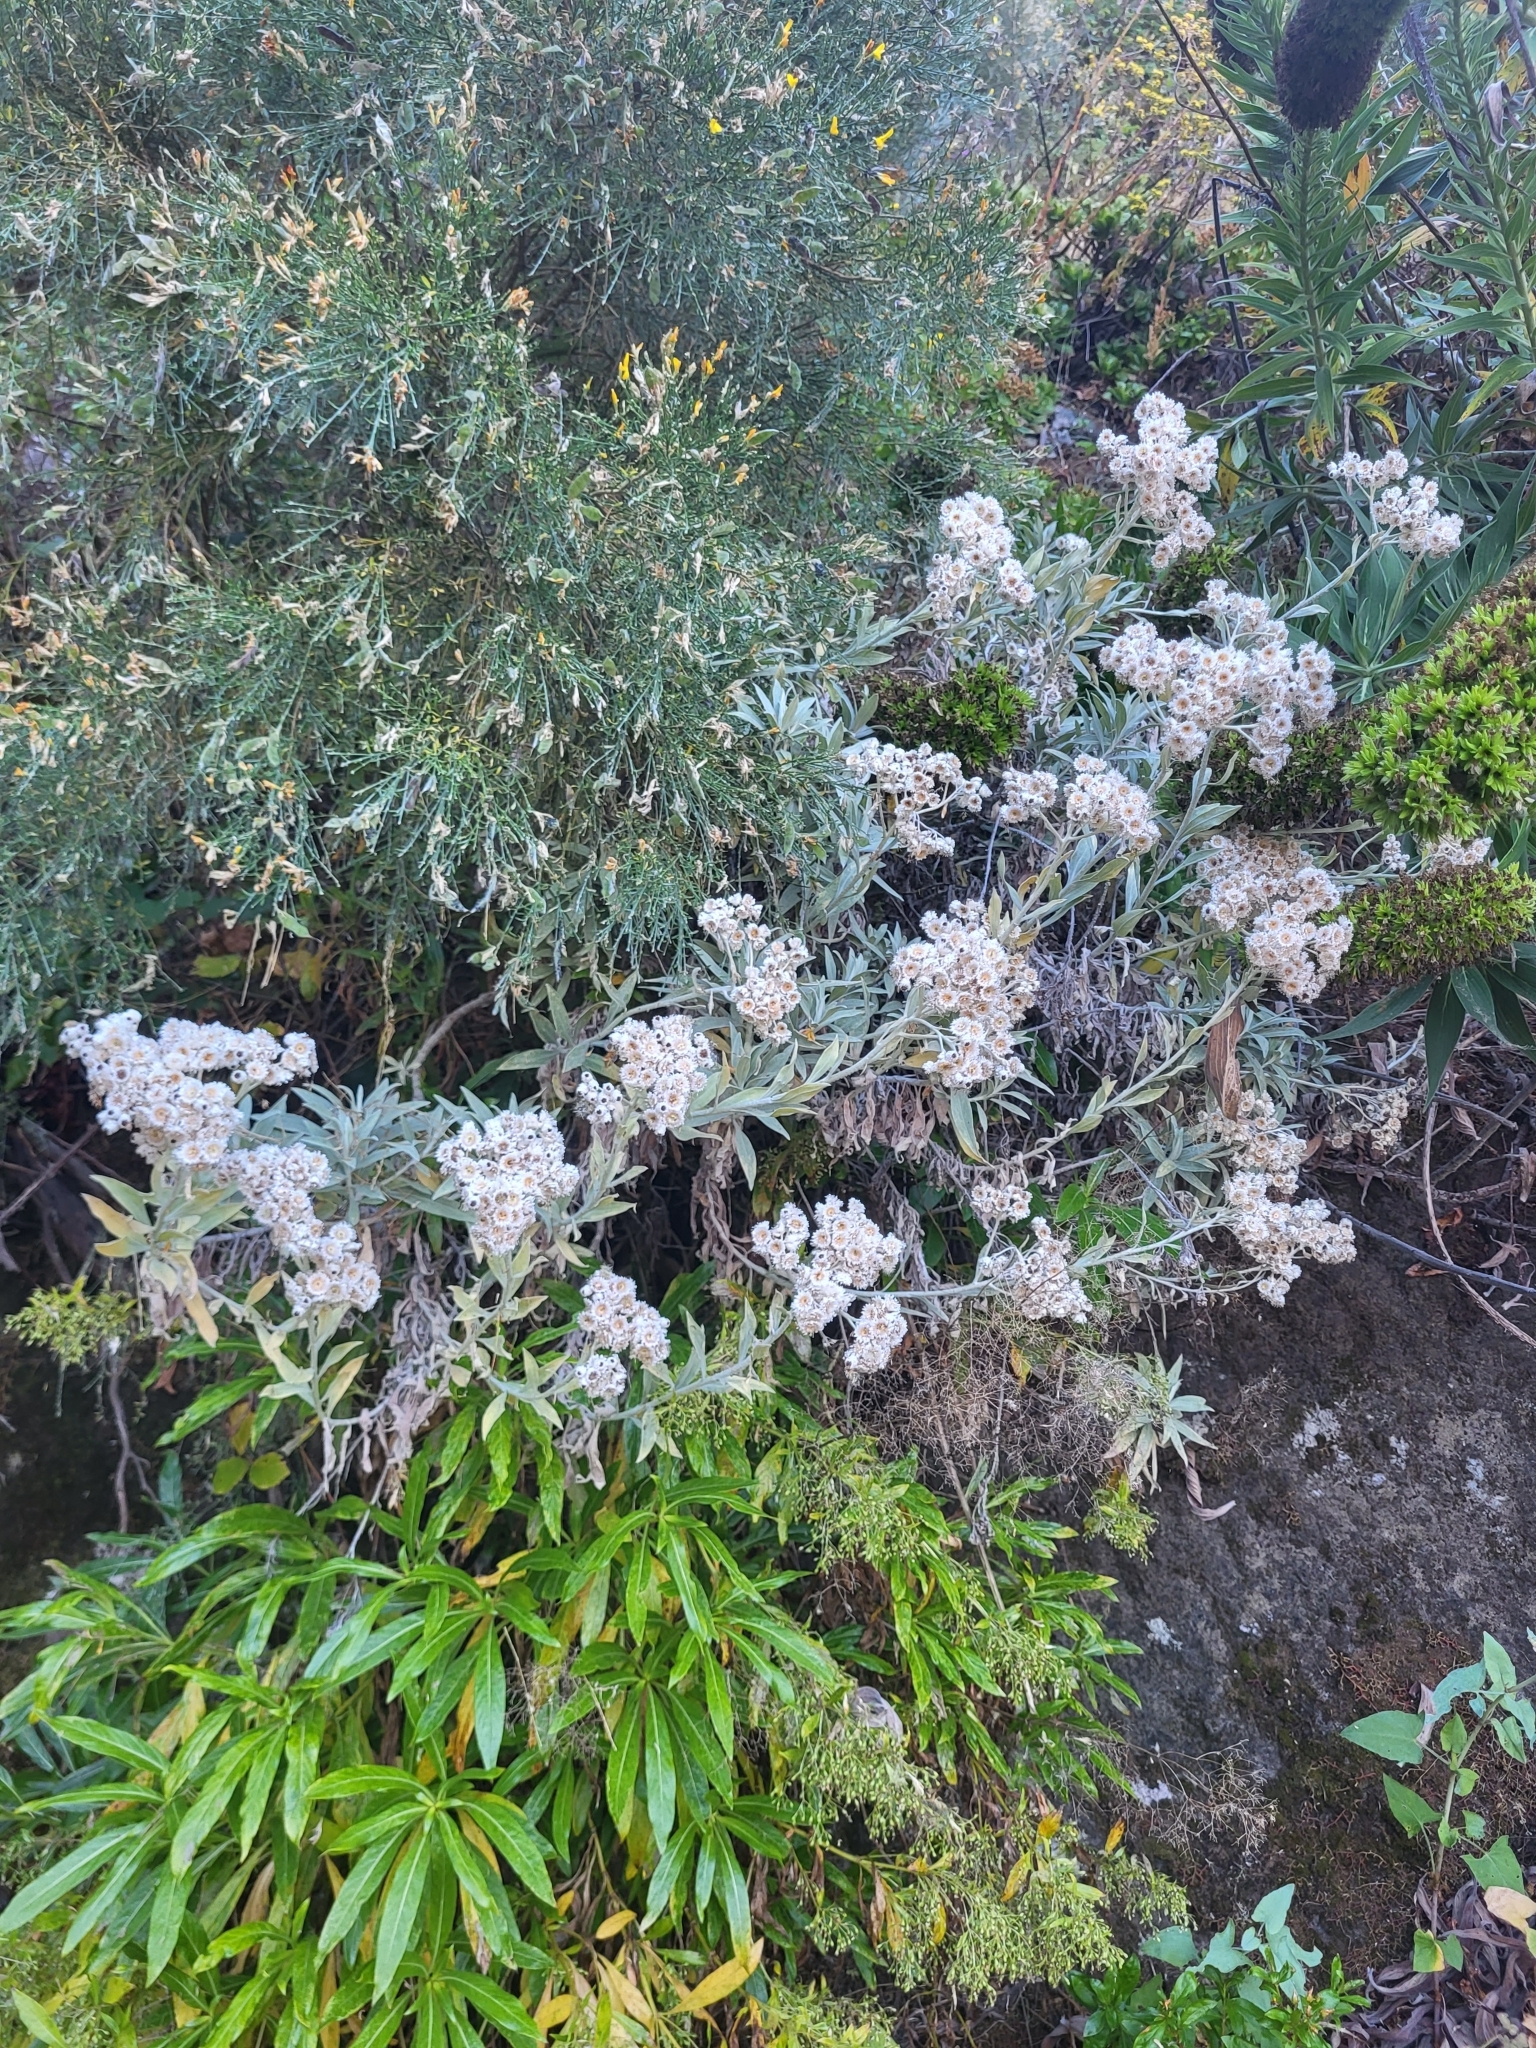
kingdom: Plantae
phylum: Tracheophyta
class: Magnoliopsida
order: Asterales
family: Asteraceae
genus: Helichrysum
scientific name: Helichrysum melaleucum
